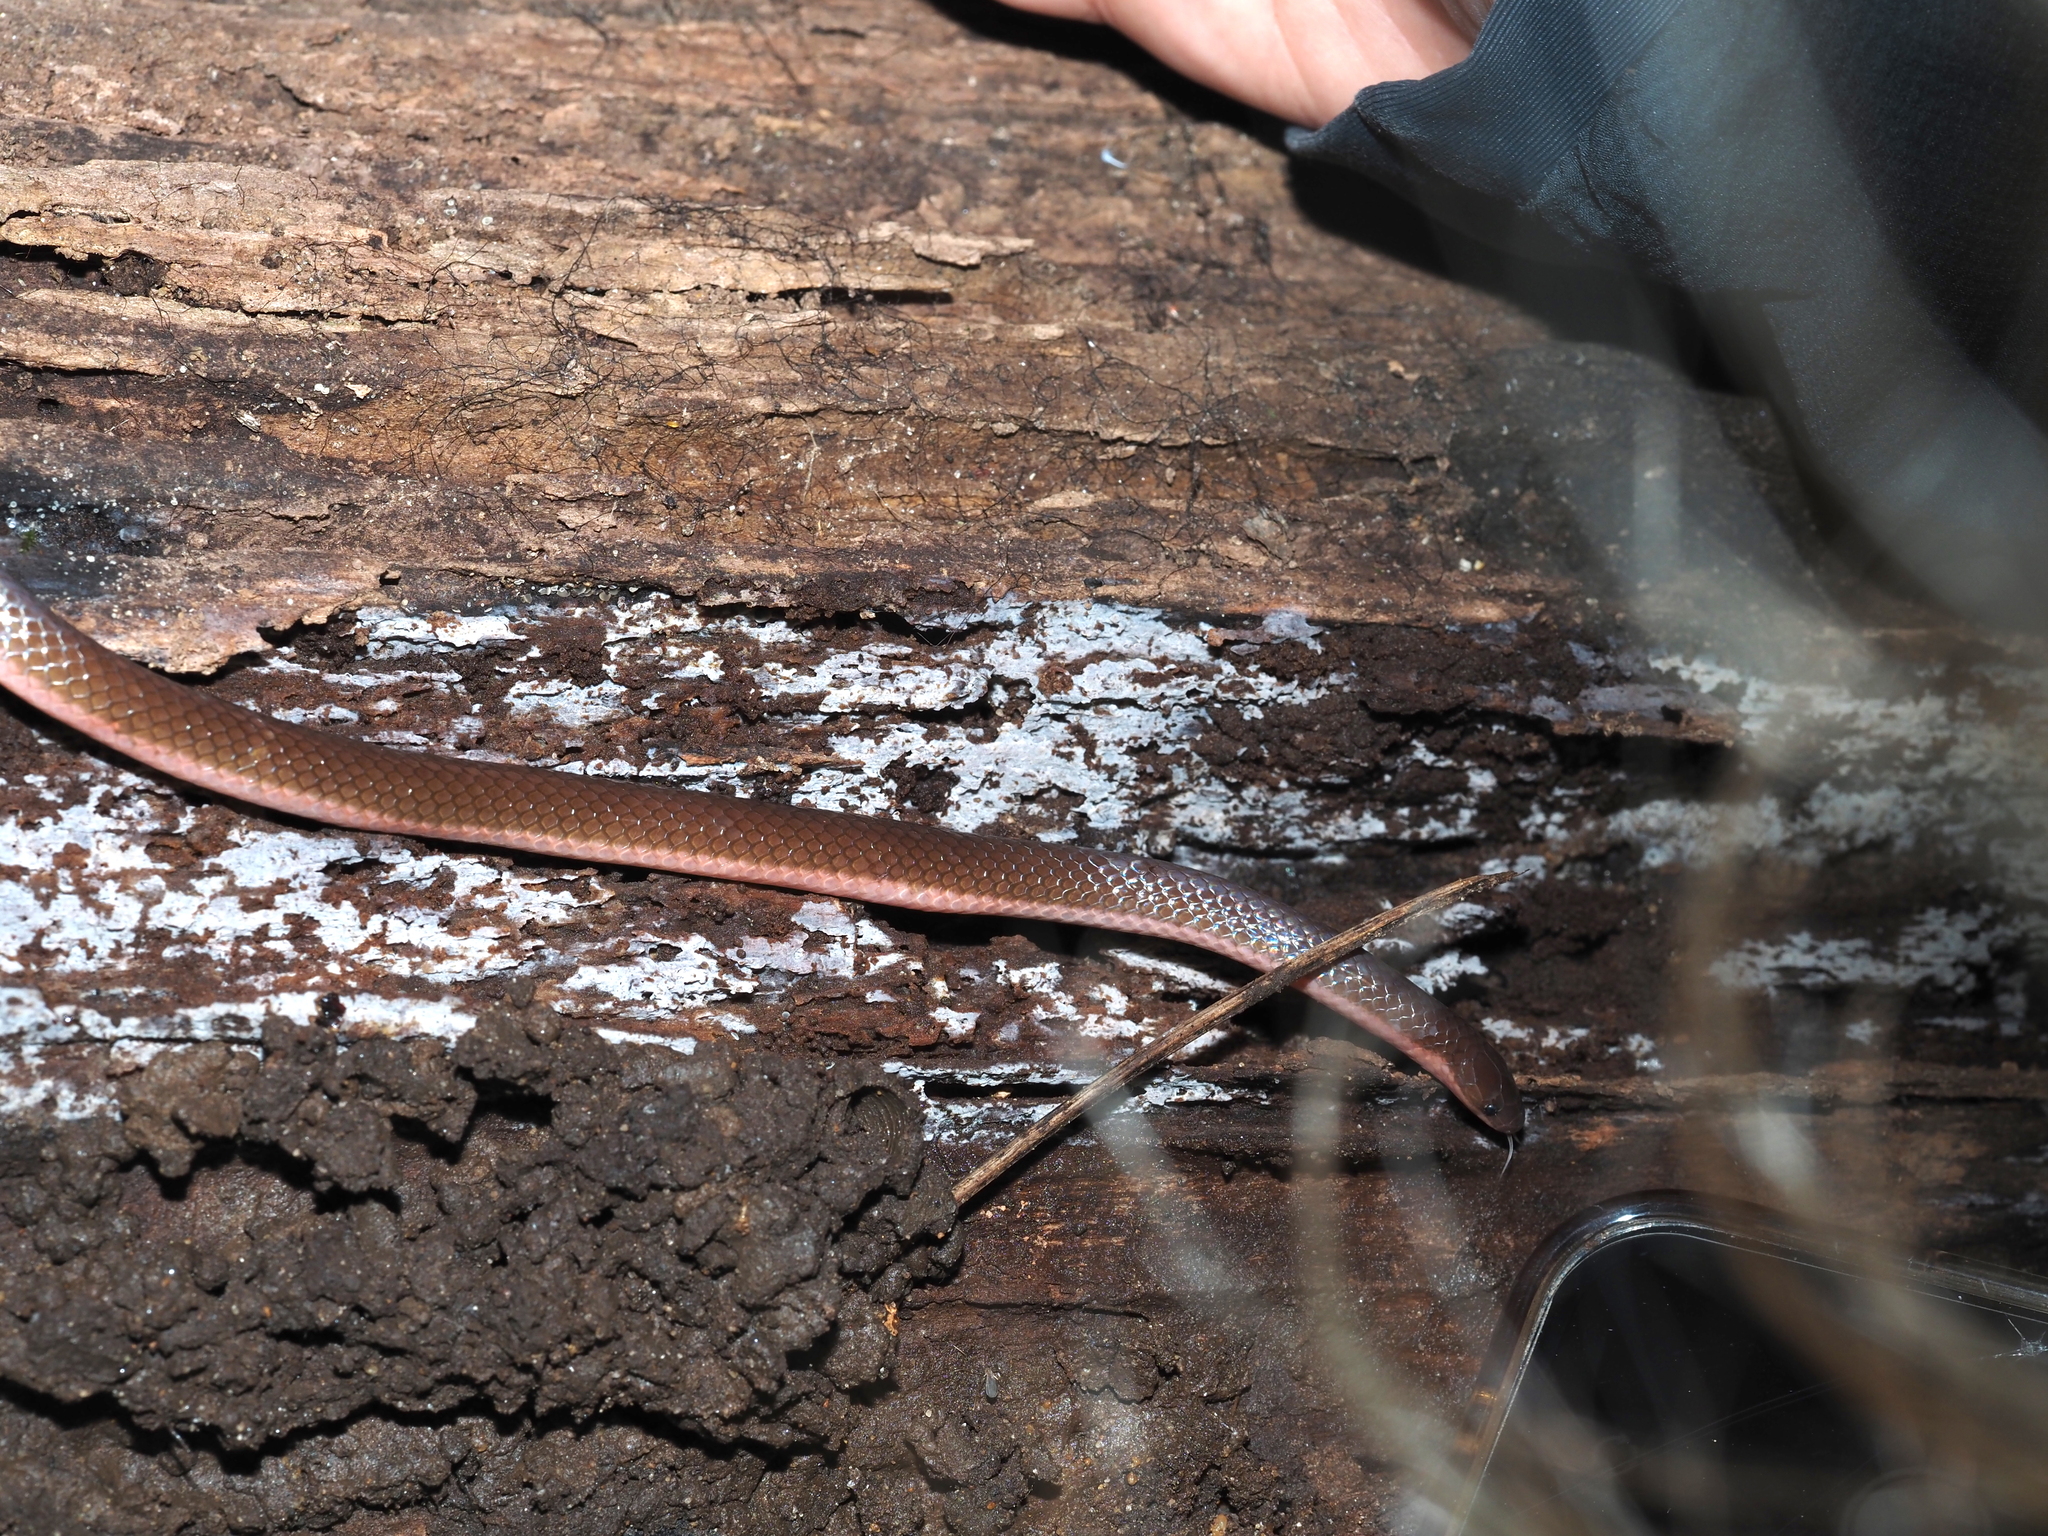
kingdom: Animalia
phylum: Chordata
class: Squamata
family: Colubridae
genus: Carphophis
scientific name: Carphophis amoenus
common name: Eastern worm snake
